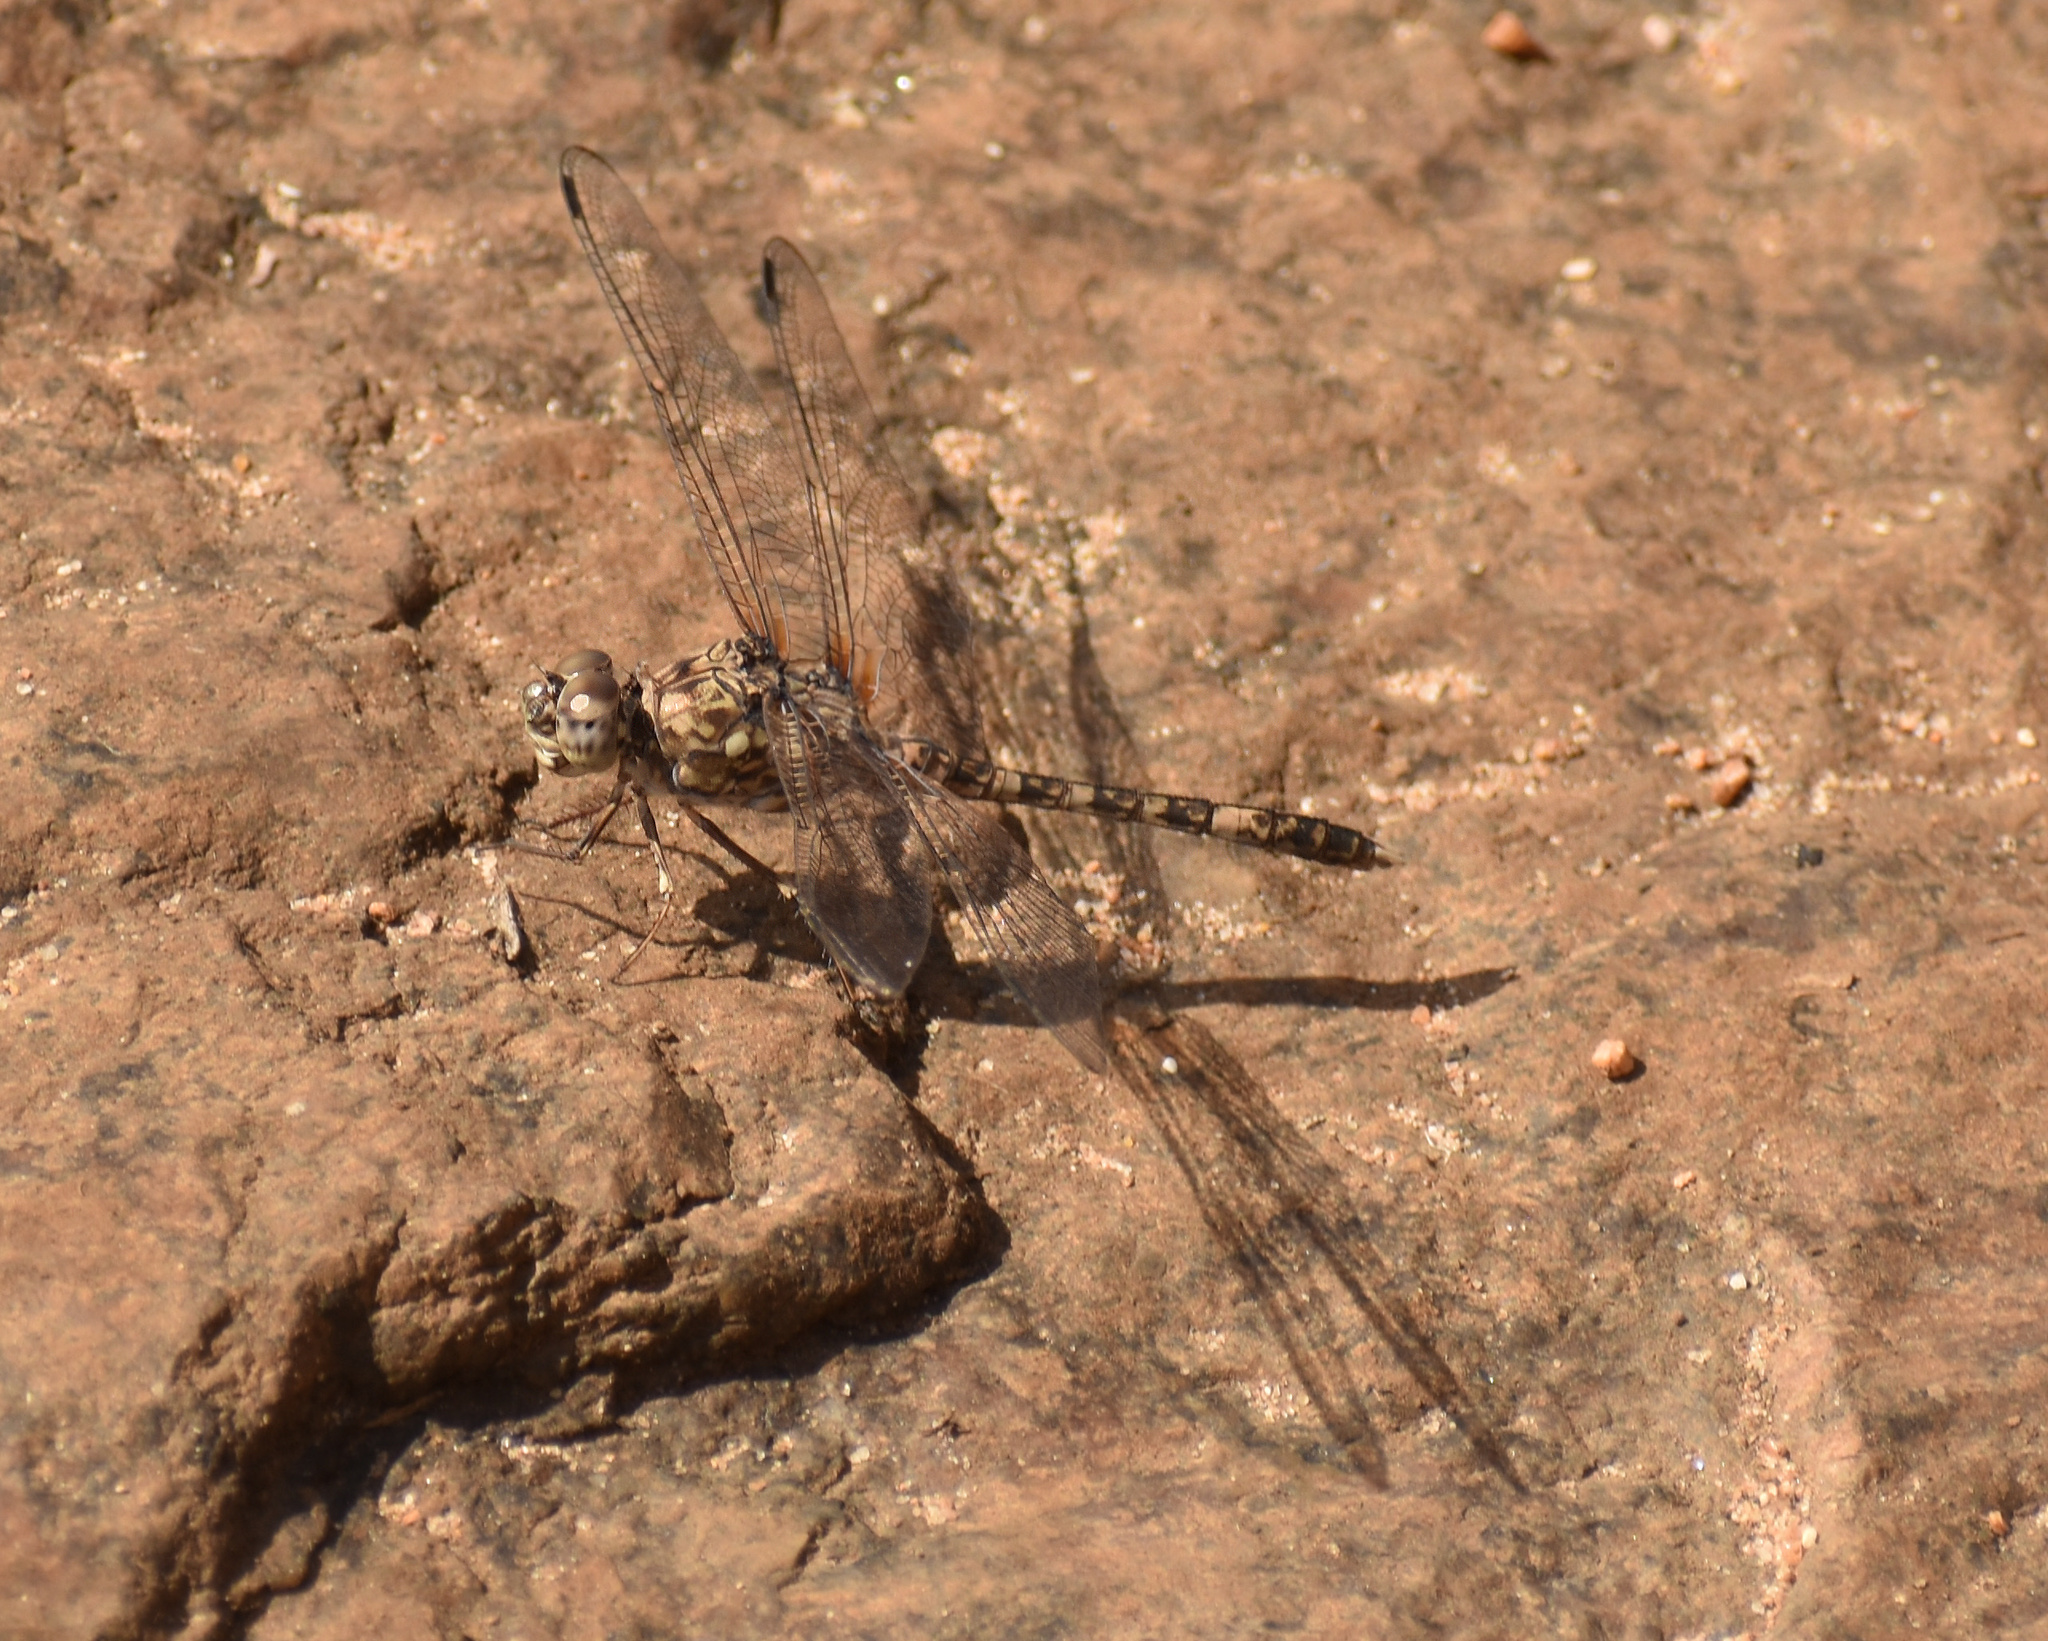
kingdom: Animalia
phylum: Arthropoda
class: Insecta
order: Odonata
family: Libellulidae
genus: Bradinopyga
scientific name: Bradinopyga cornuta
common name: Flecked wall-skimmer
